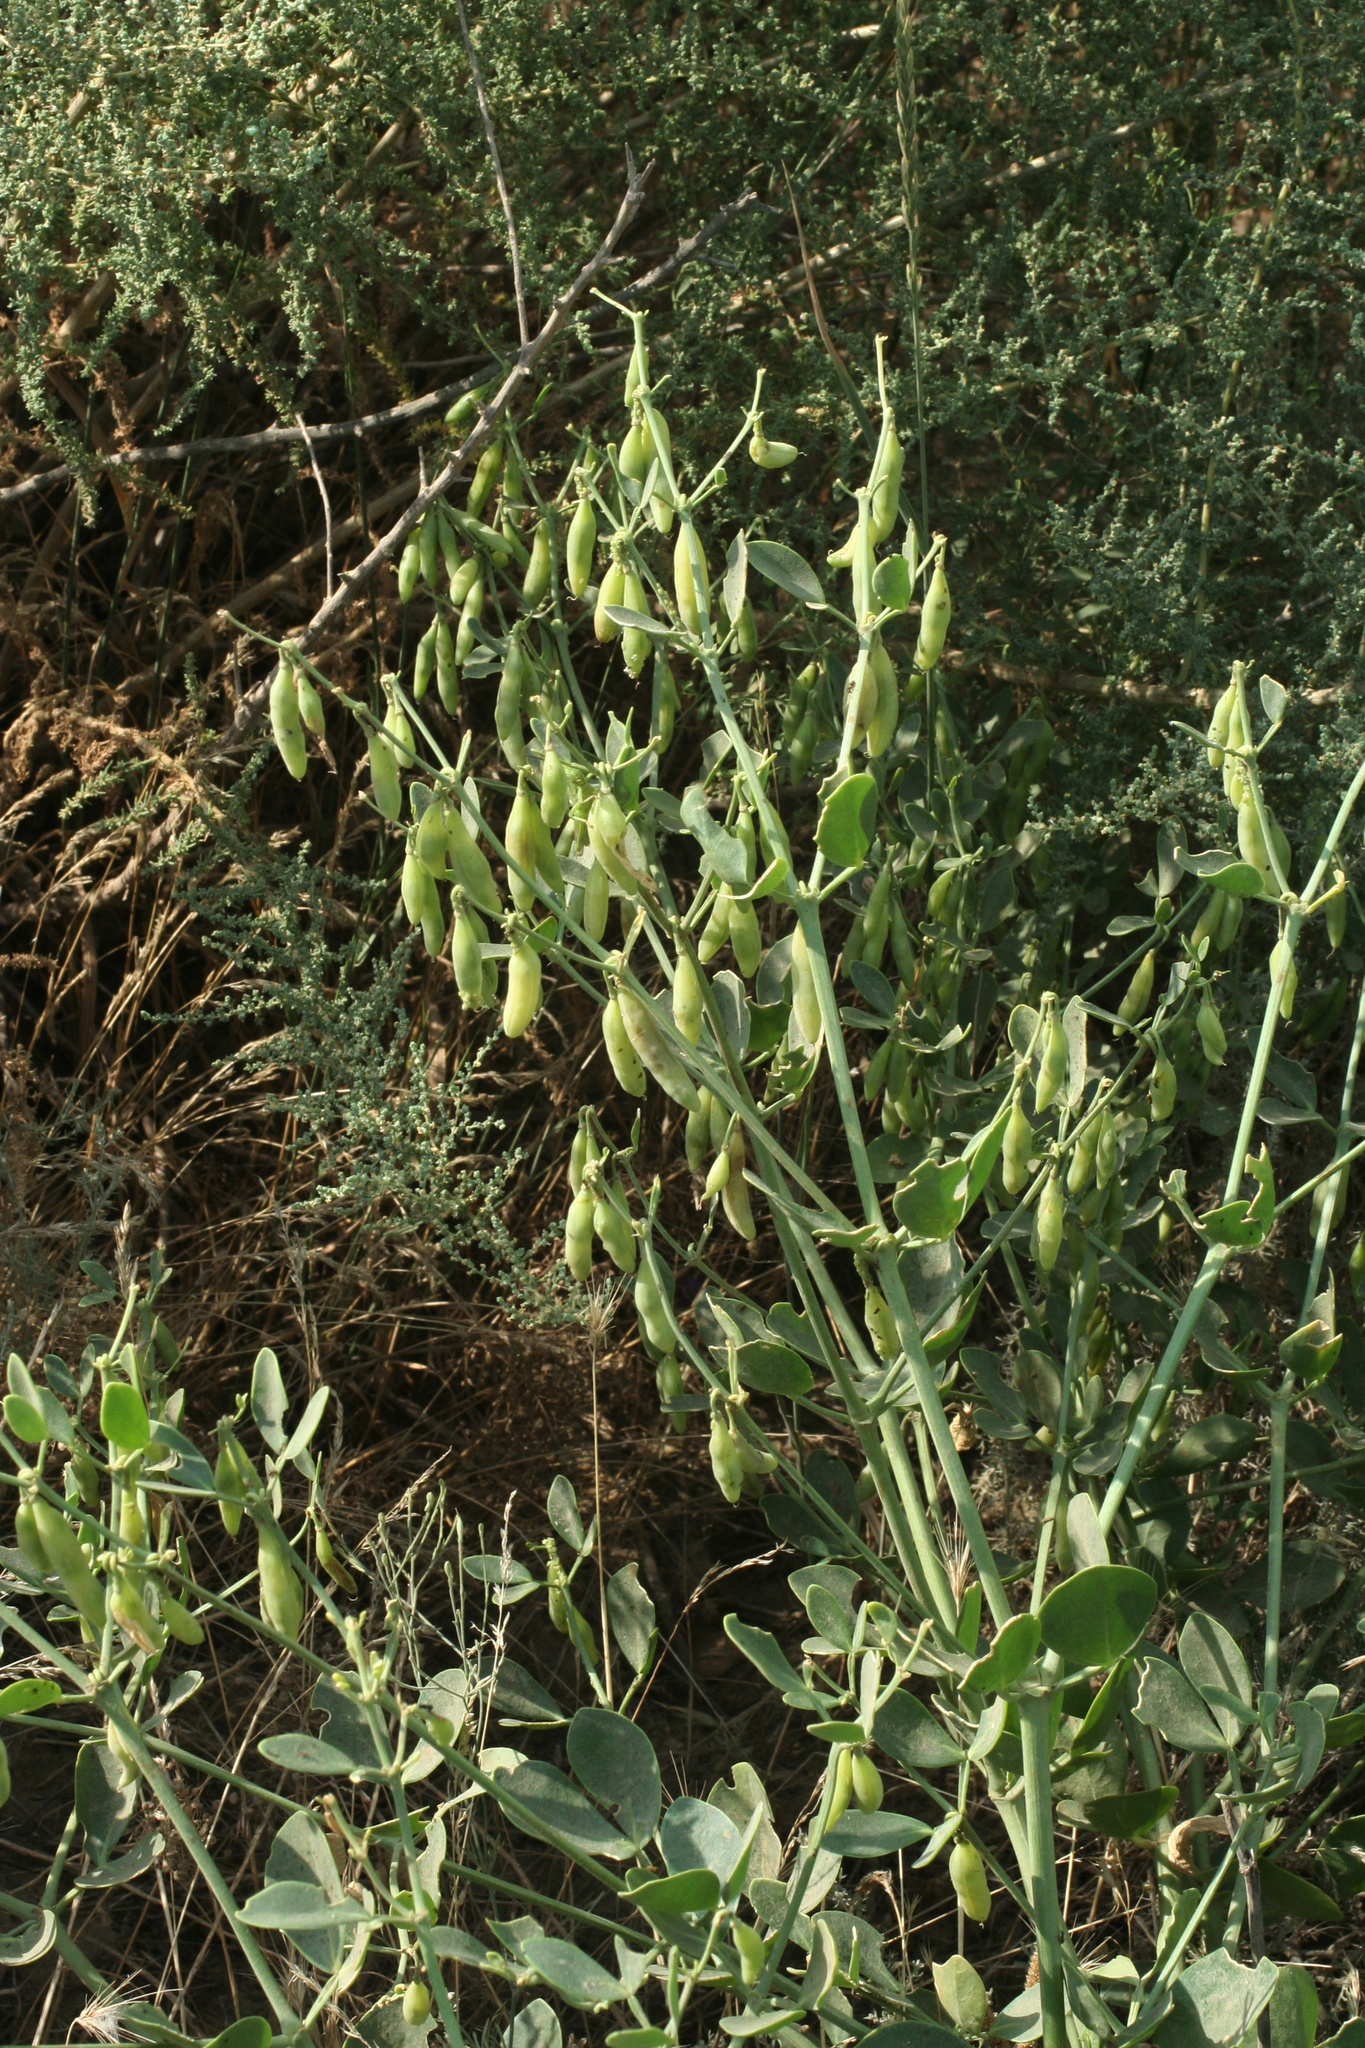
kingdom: Plantae
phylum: Tracheophyta
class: Magnoliopsida
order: Zygophyllales
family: Zygophyllaceae
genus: Zygophyllum
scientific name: Zygophyllum fabago
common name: Syrian beancaper
